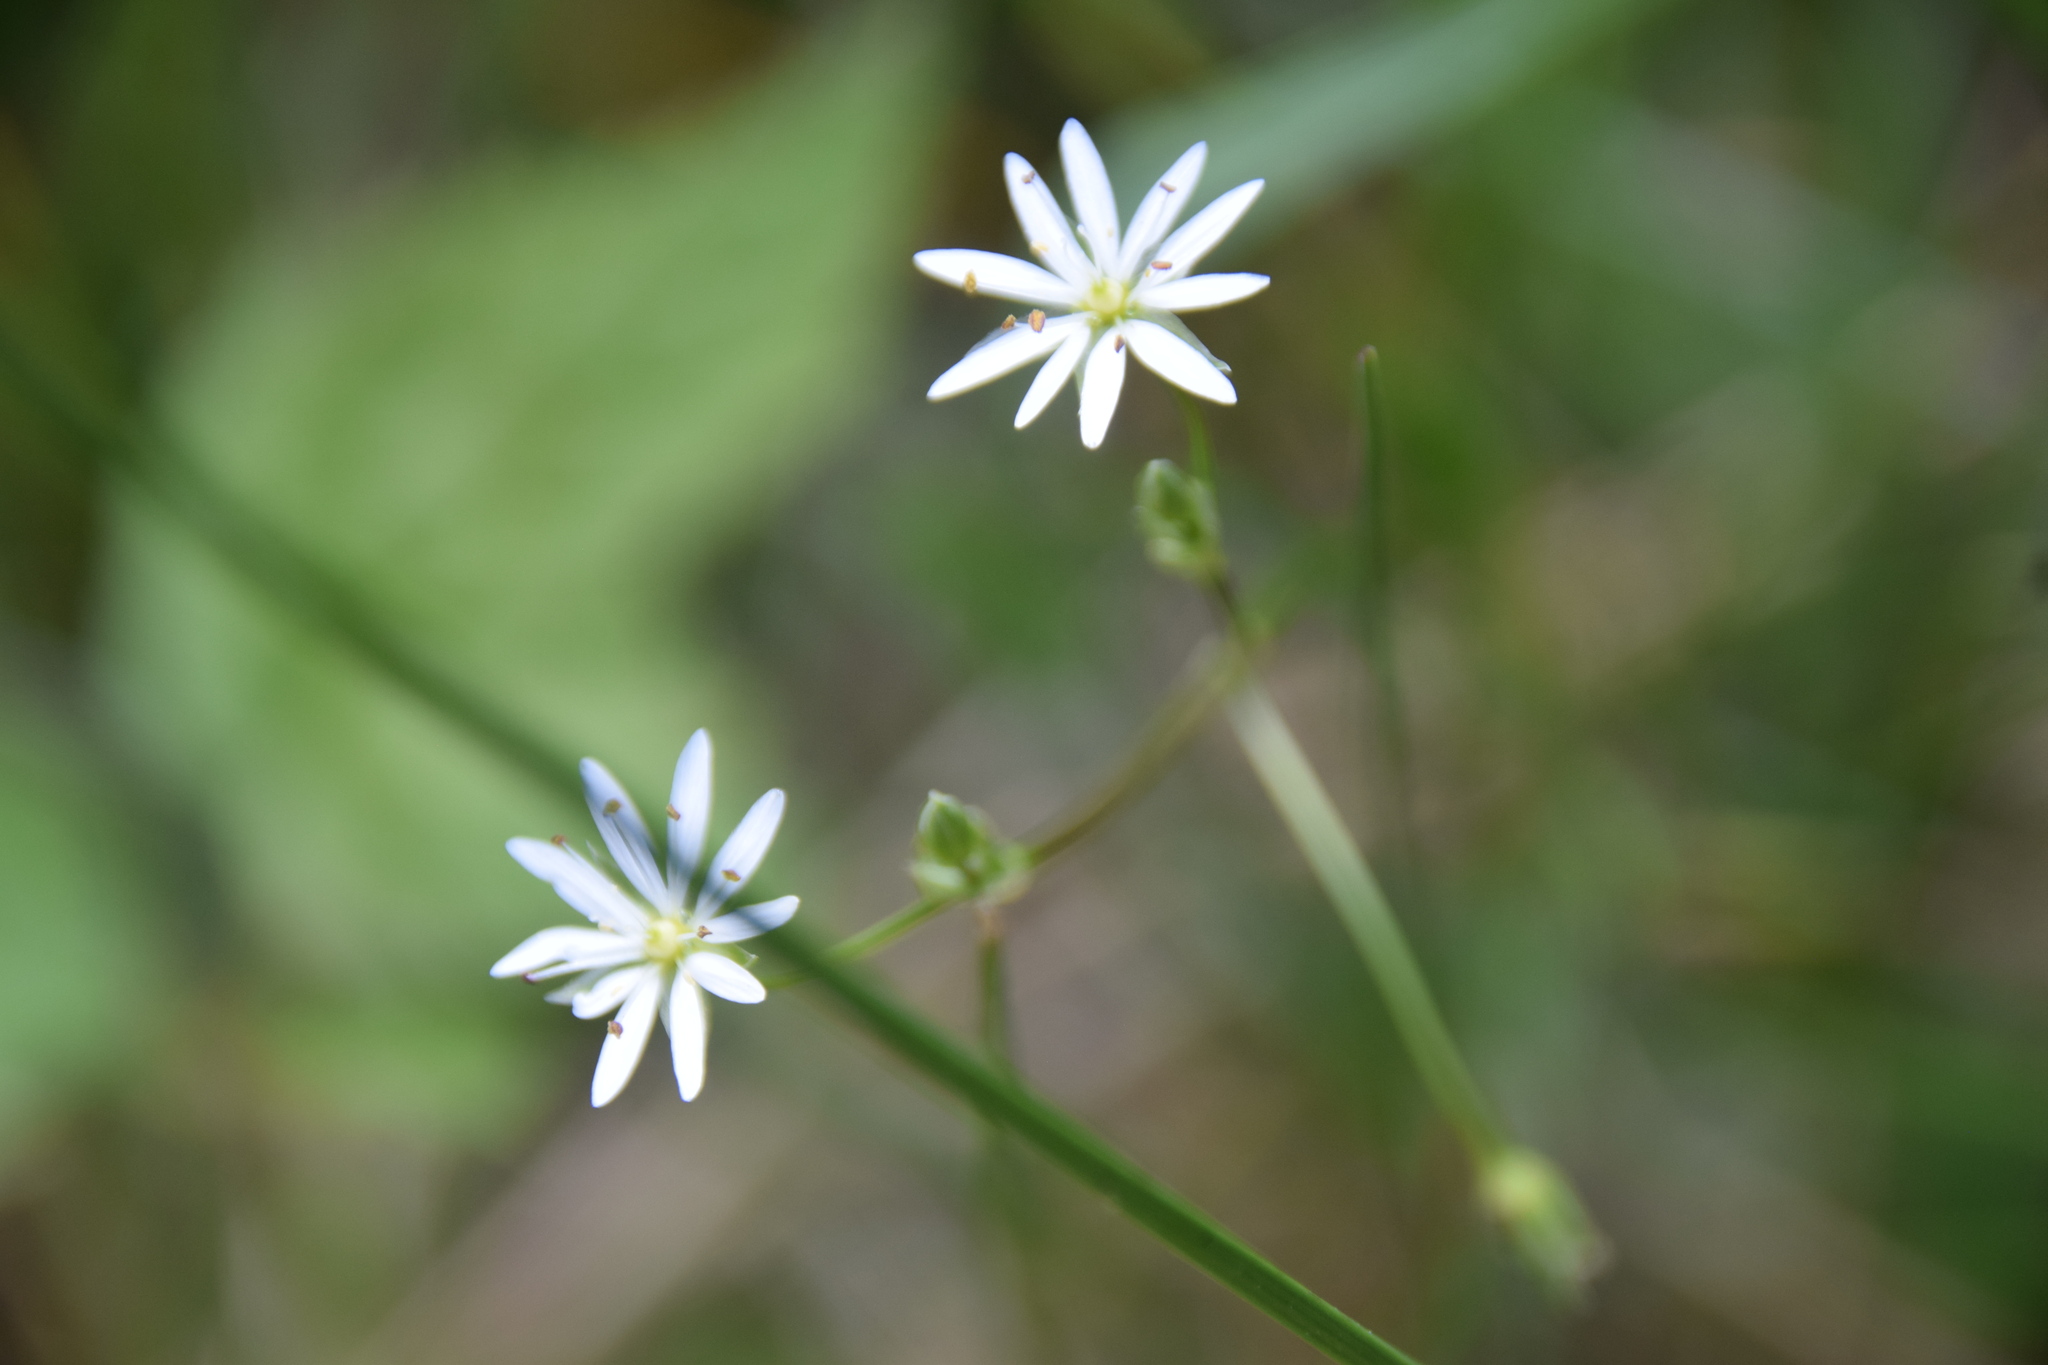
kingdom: Plantae
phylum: Tracheophyta
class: Magnoliopsida
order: Caryophyllales
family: Caryophyllaceae
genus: Stellaria
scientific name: Stellaria graminea
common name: Grass-like starwort
